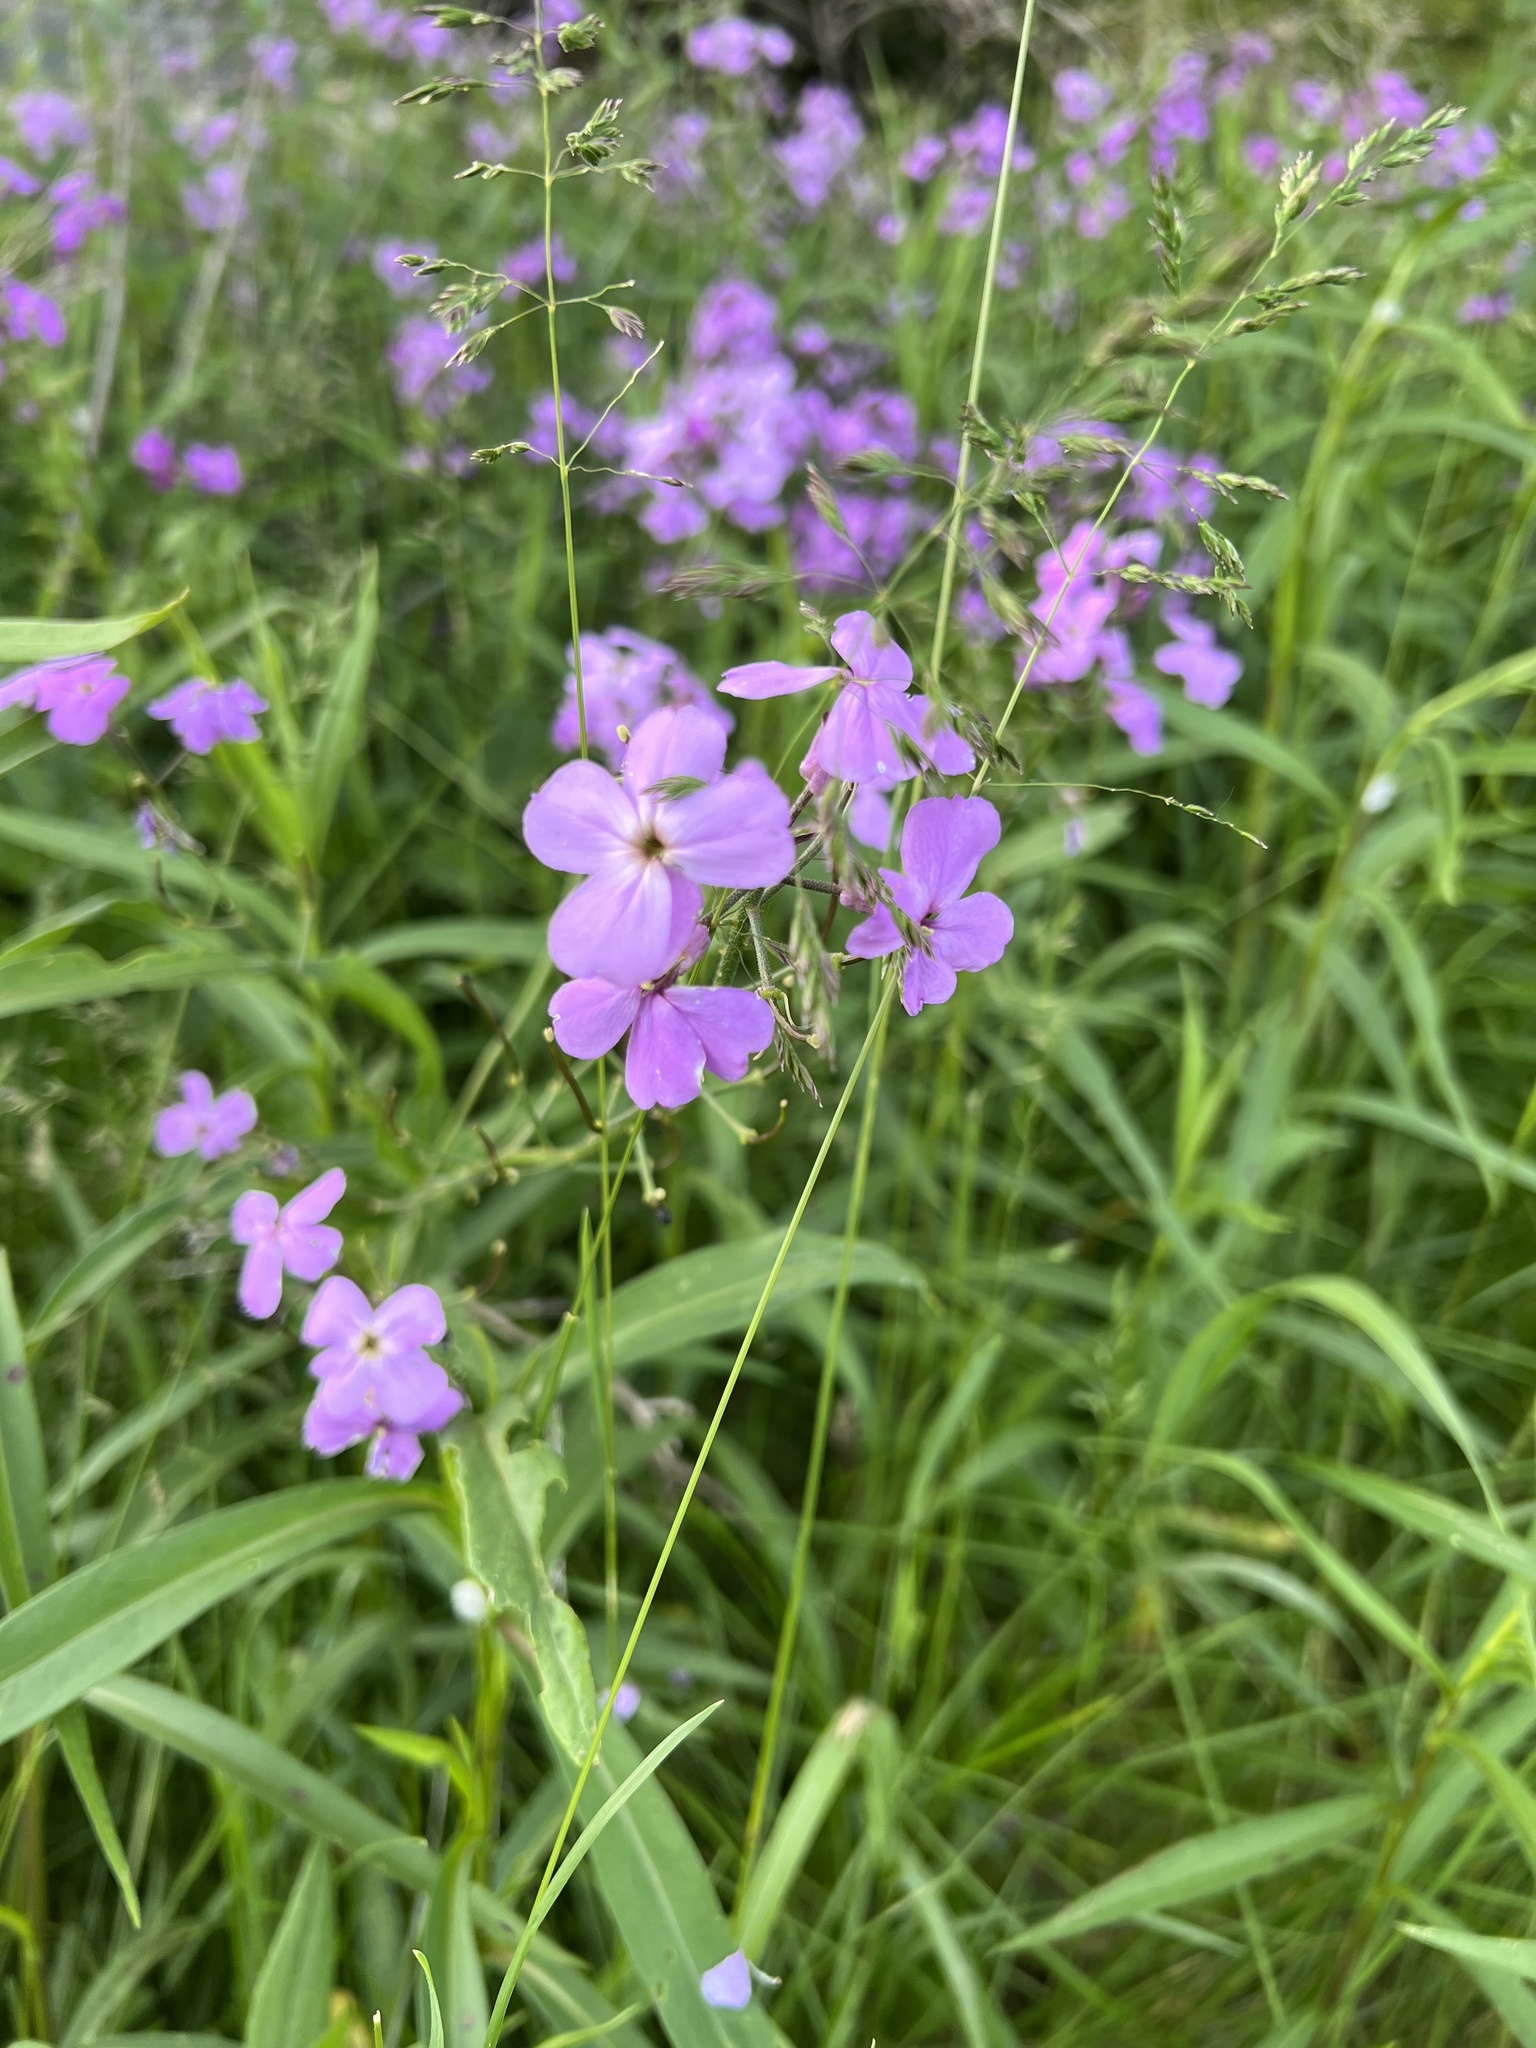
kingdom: Plantae
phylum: Tracheophyta
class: Magnoliopsida
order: Brassicales
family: Brassicaceae
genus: Hesperis
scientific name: Hesperis matronalis
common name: Dame's-violet
